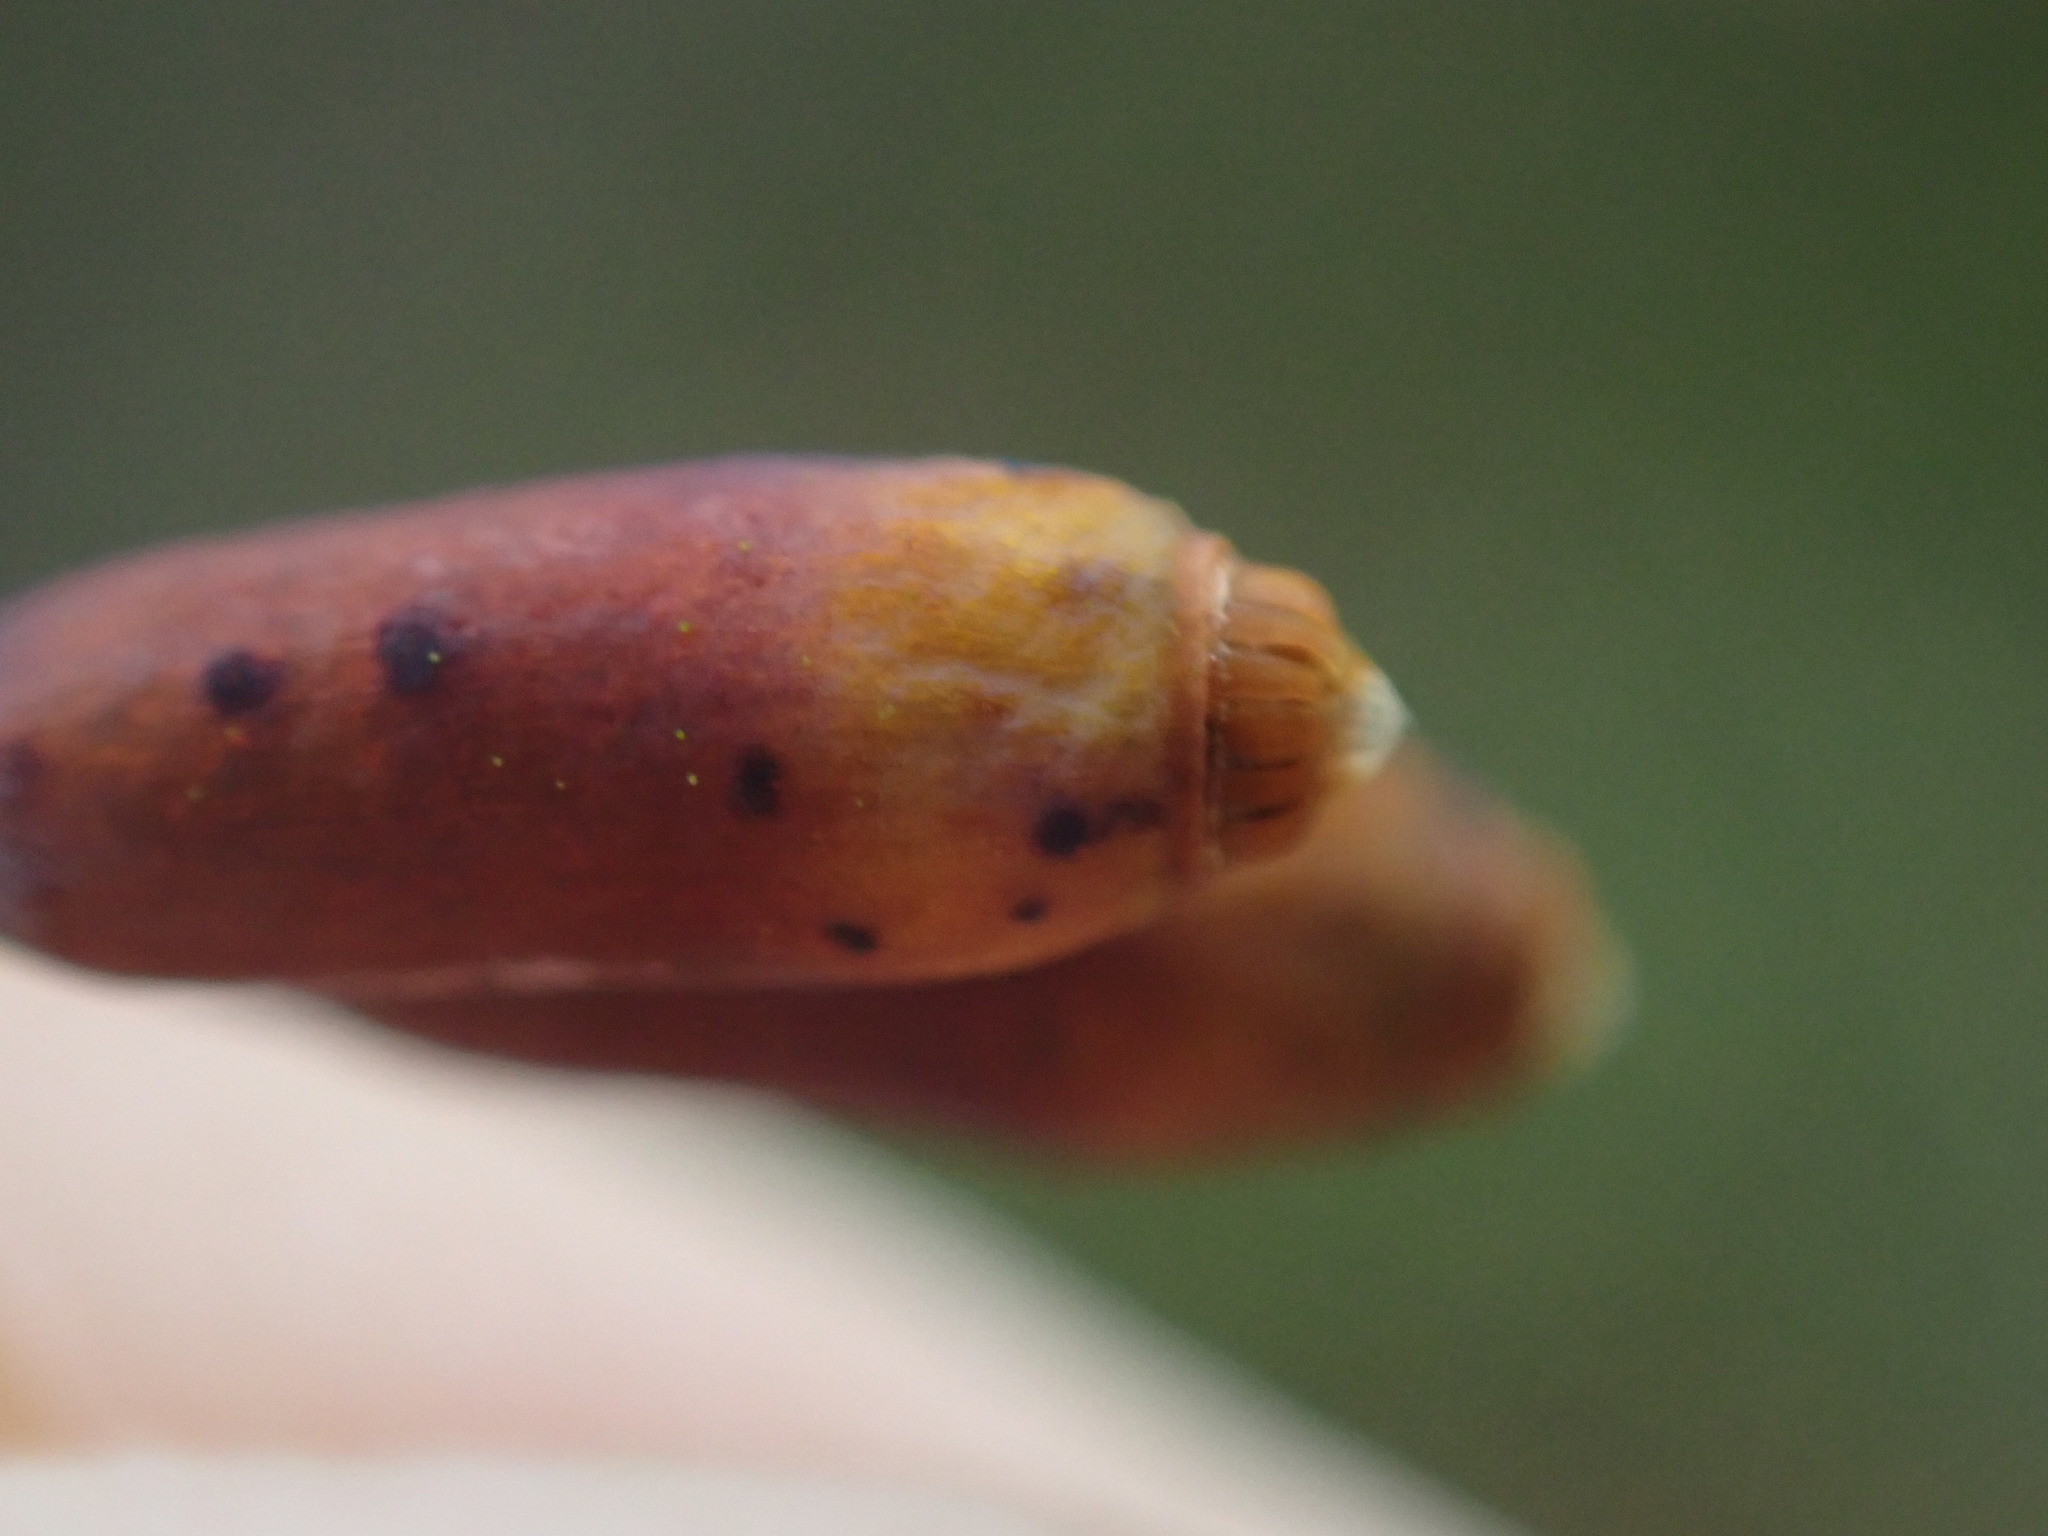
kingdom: Plantae
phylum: Bryophyta
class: Bryopsida
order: Bryales
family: Mniaceae
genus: Leucolepis
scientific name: Leucolepis acanthoneura
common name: Leucolepis umbrella moss
